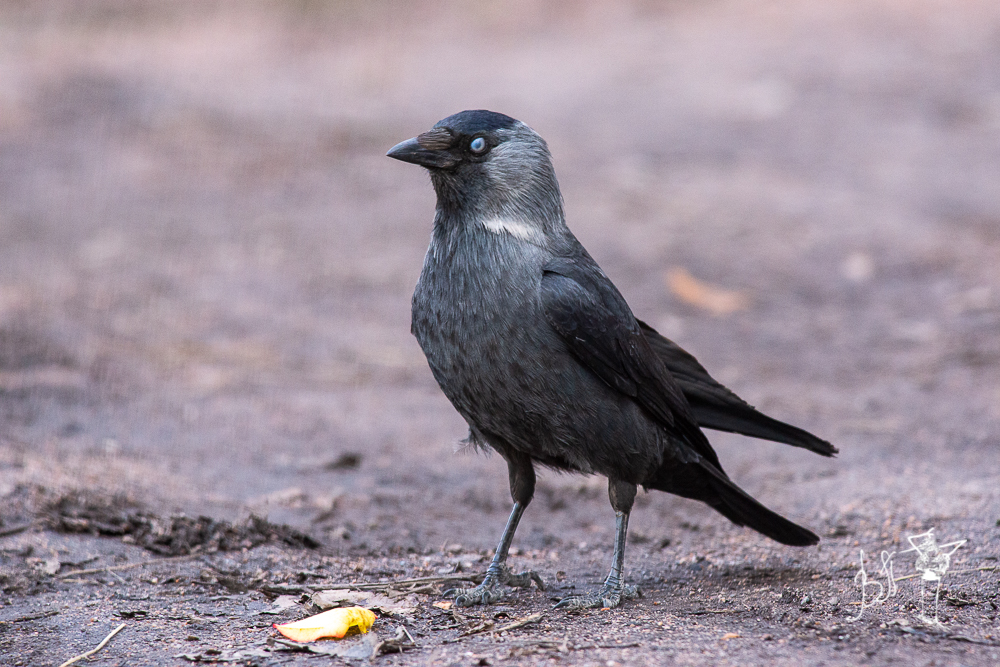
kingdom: Animalia
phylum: Chordata
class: Aves
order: Passeriformes
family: Corvidae
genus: Coloeus
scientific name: Coloeus monedula
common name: Western jackdaw
